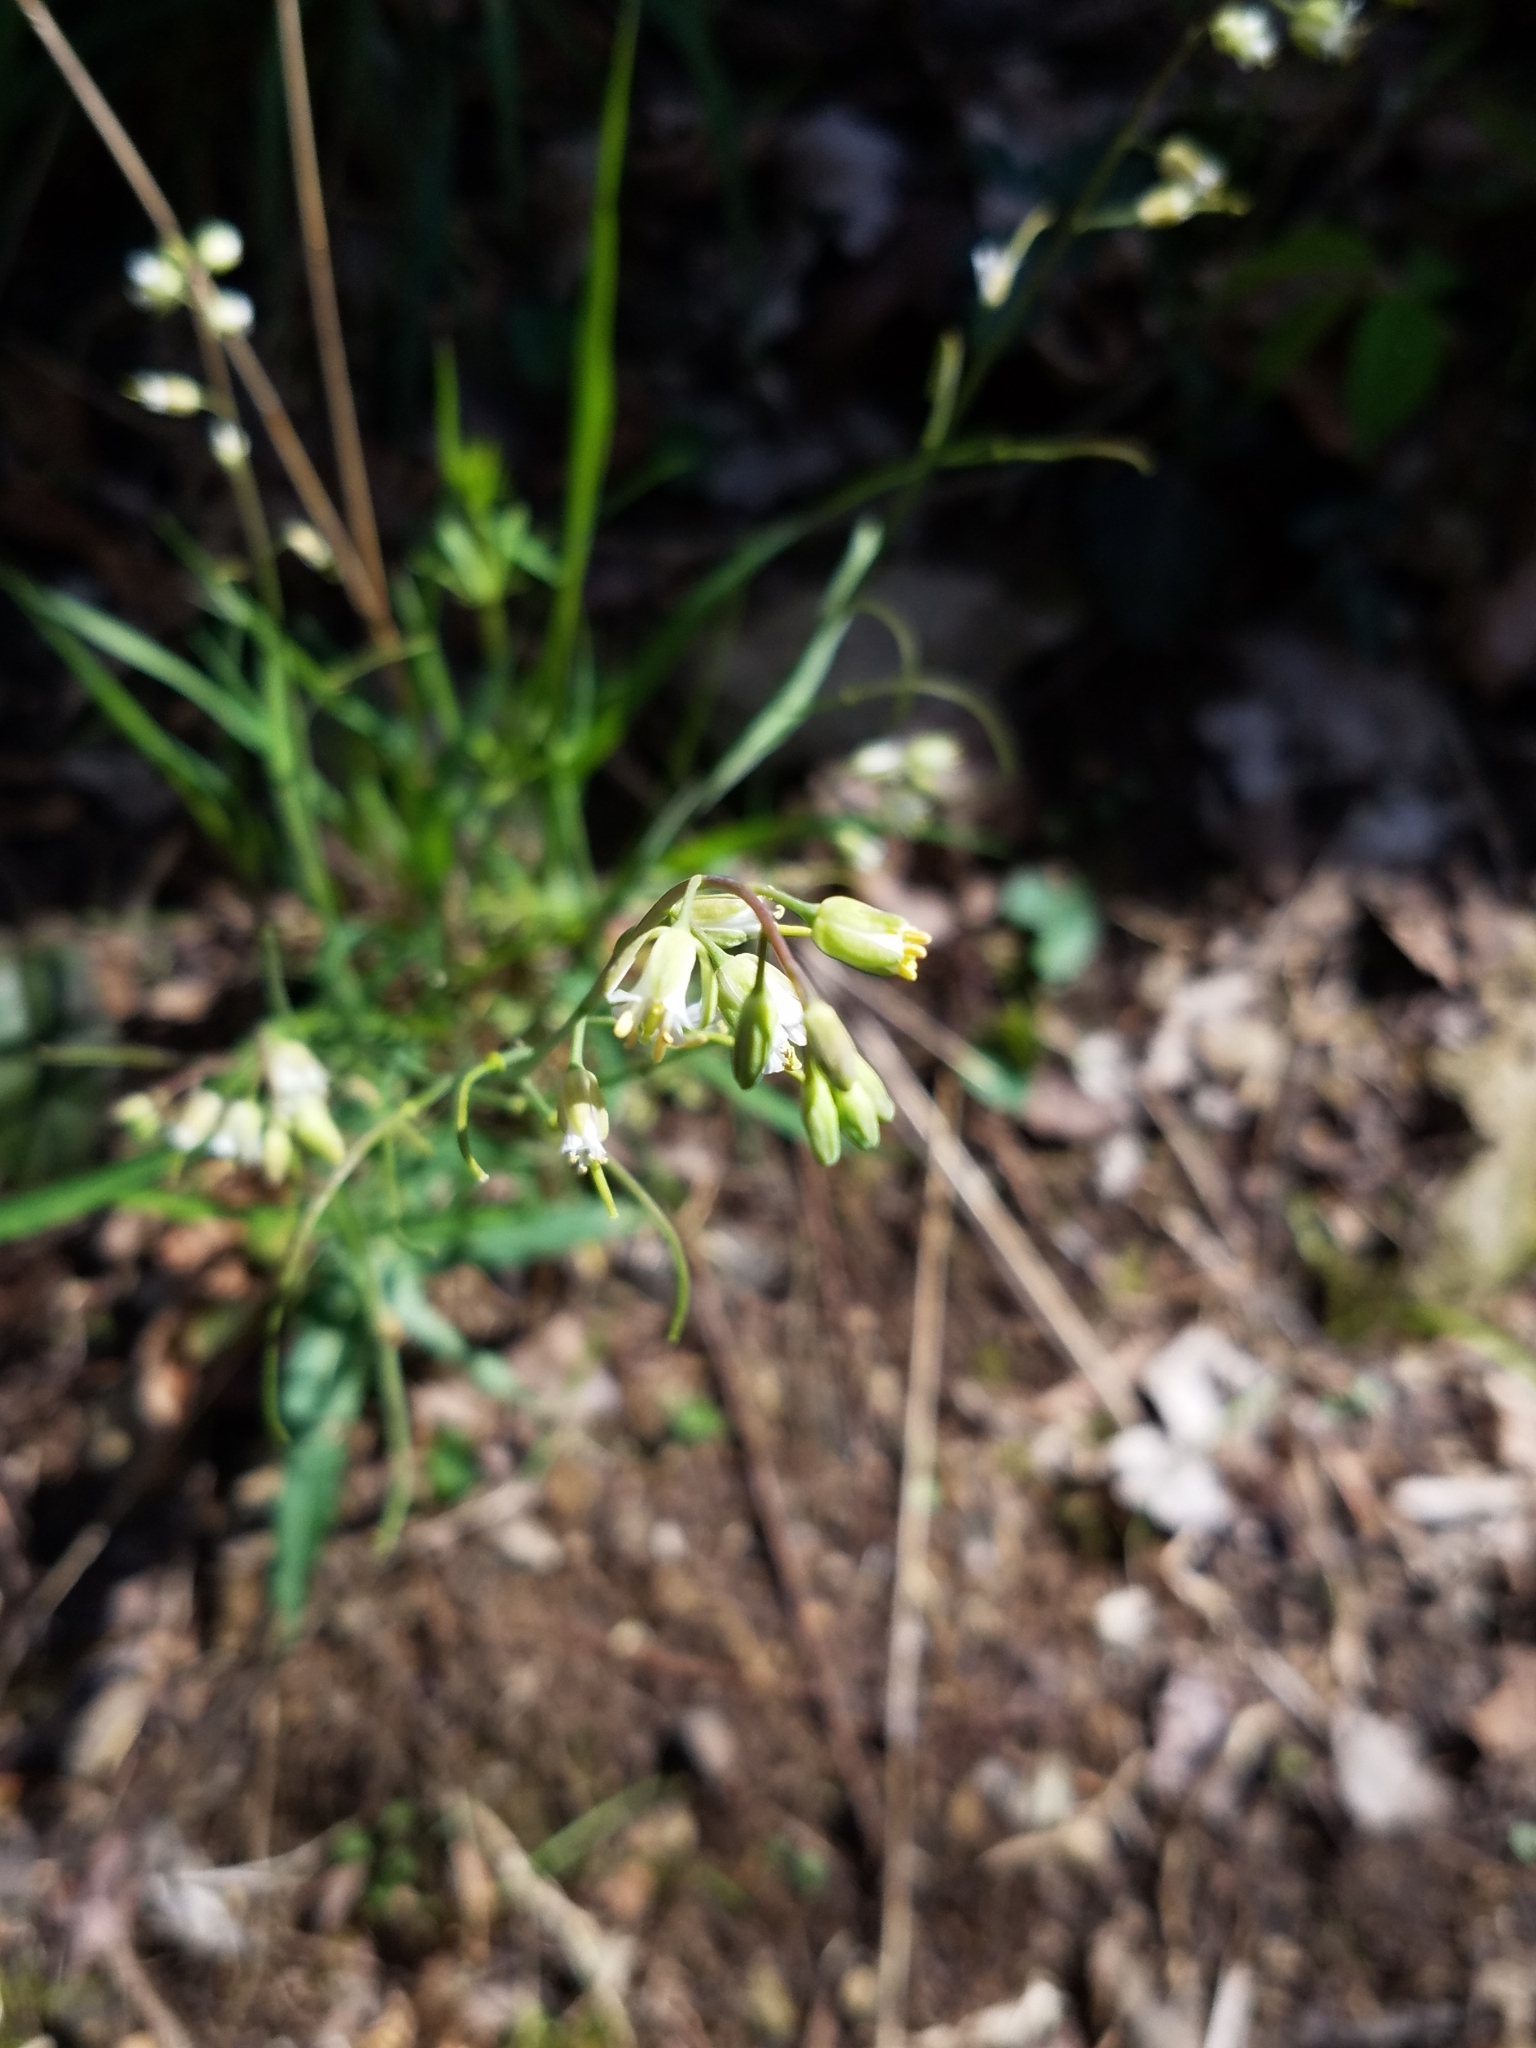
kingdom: Plantae
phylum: Tracheophyta
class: Magnoliopsida
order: Brassicales
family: Brassicaceae
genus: Borodinia
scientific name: Borodinia laevigata
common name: Smooth rockcress
